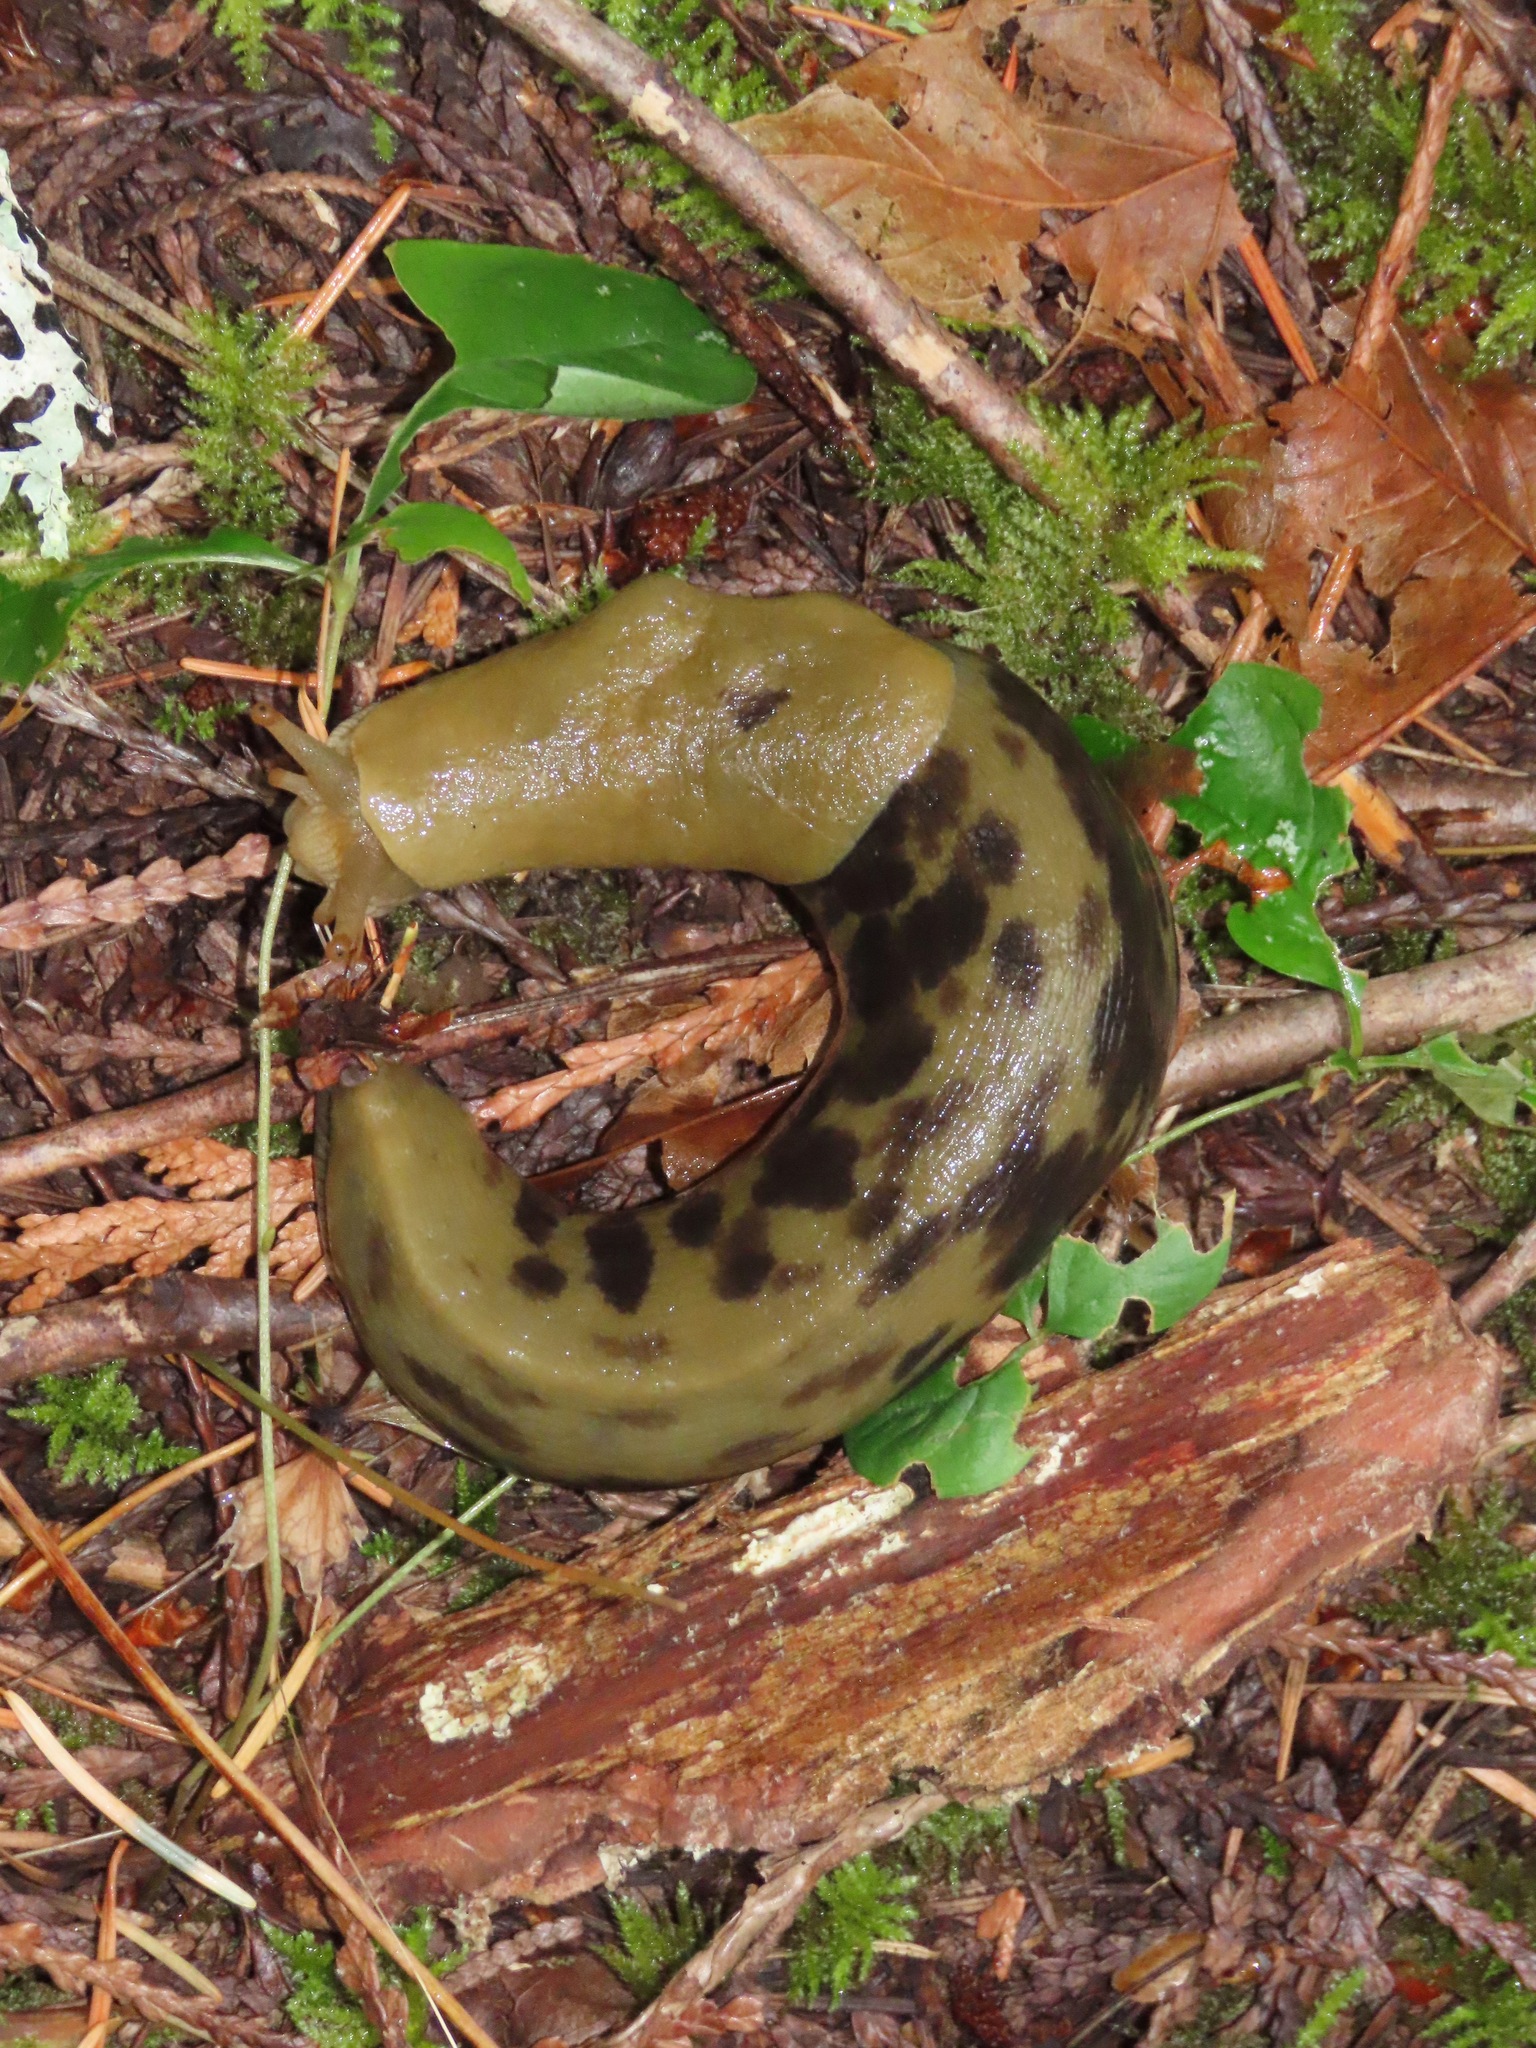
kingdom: Animalia
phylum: Mollusca
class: Gastropoda
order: Stylommatophora
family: Ariolimacidae
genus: Ariolimax
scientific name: Ariolimax columbianus
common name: Pacific banana slug
